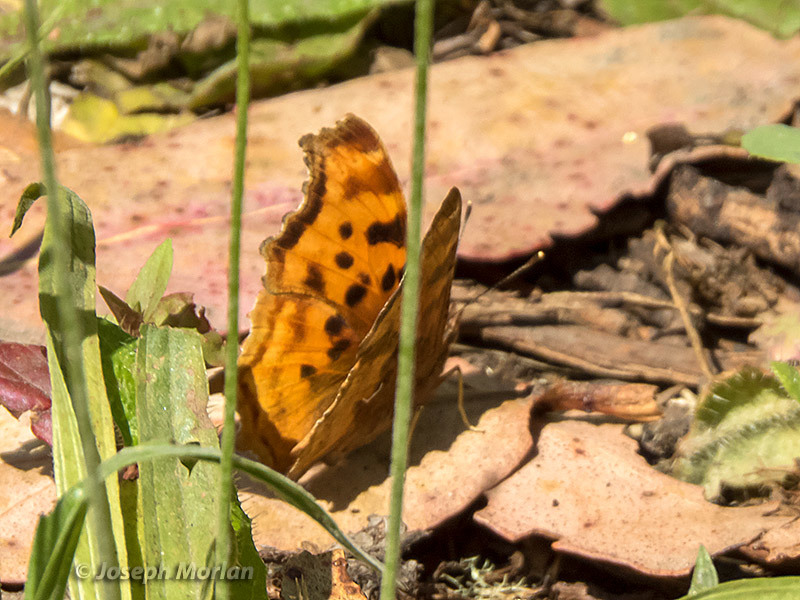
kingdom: Animalia
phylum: Arthropoda
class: Insecta
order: Lepidoptera
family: Nymphalidae
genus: Polygonia
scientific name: Polygonia satyrus
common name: Satyr angle wing
